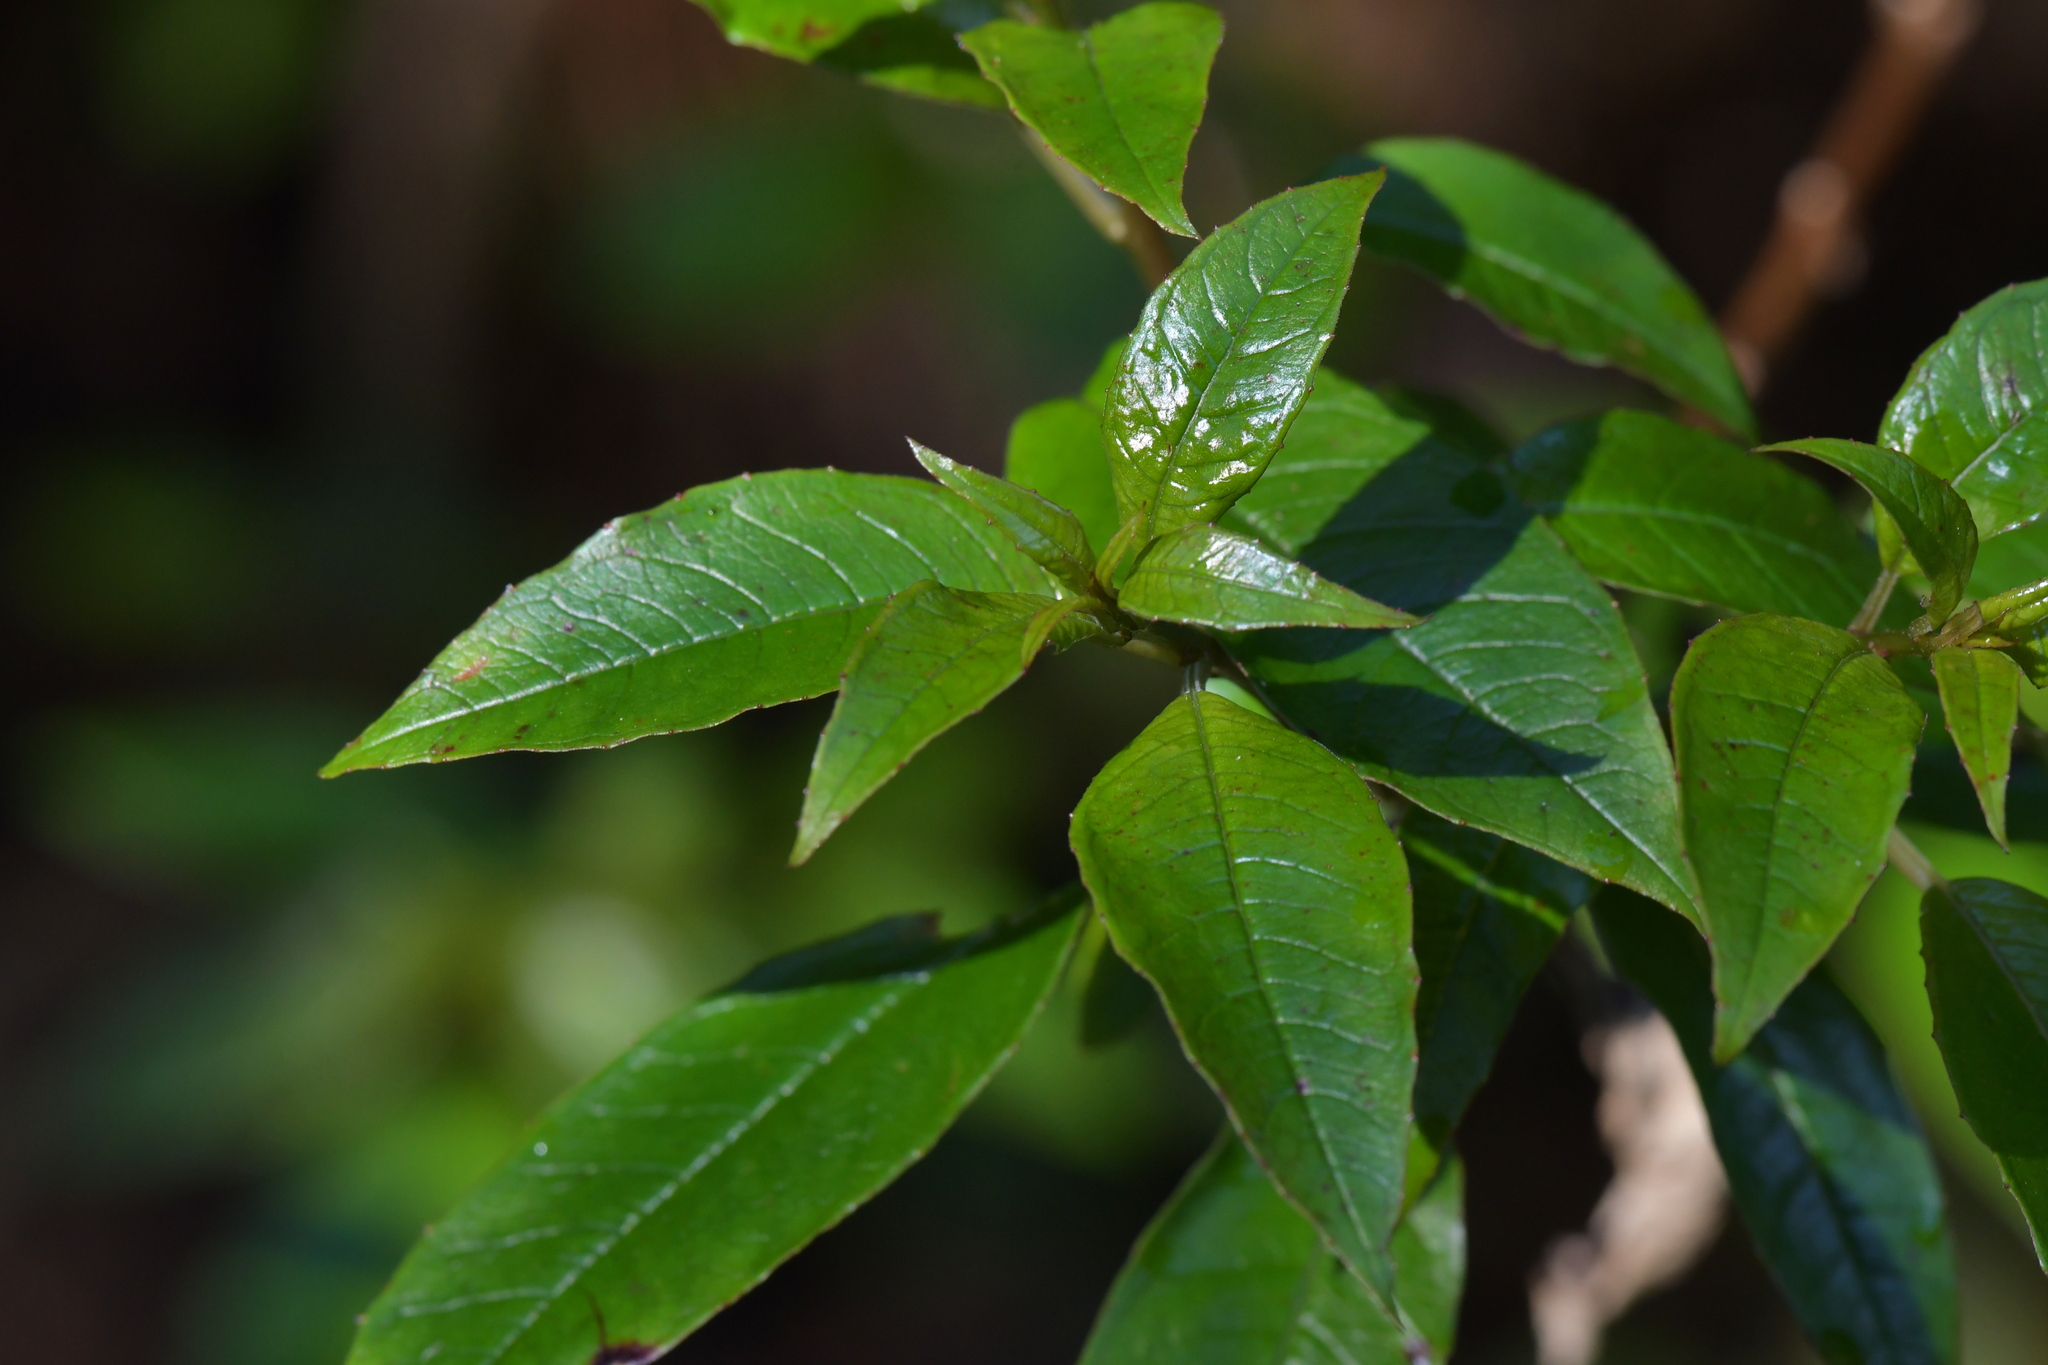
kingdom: Plantae
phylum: Tracheophyta
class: Magnoliopsida
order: Myrtales
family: Onagraceae
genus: Fuchsia
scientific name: Fuchsia excorticata
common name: Tree fuchsia
